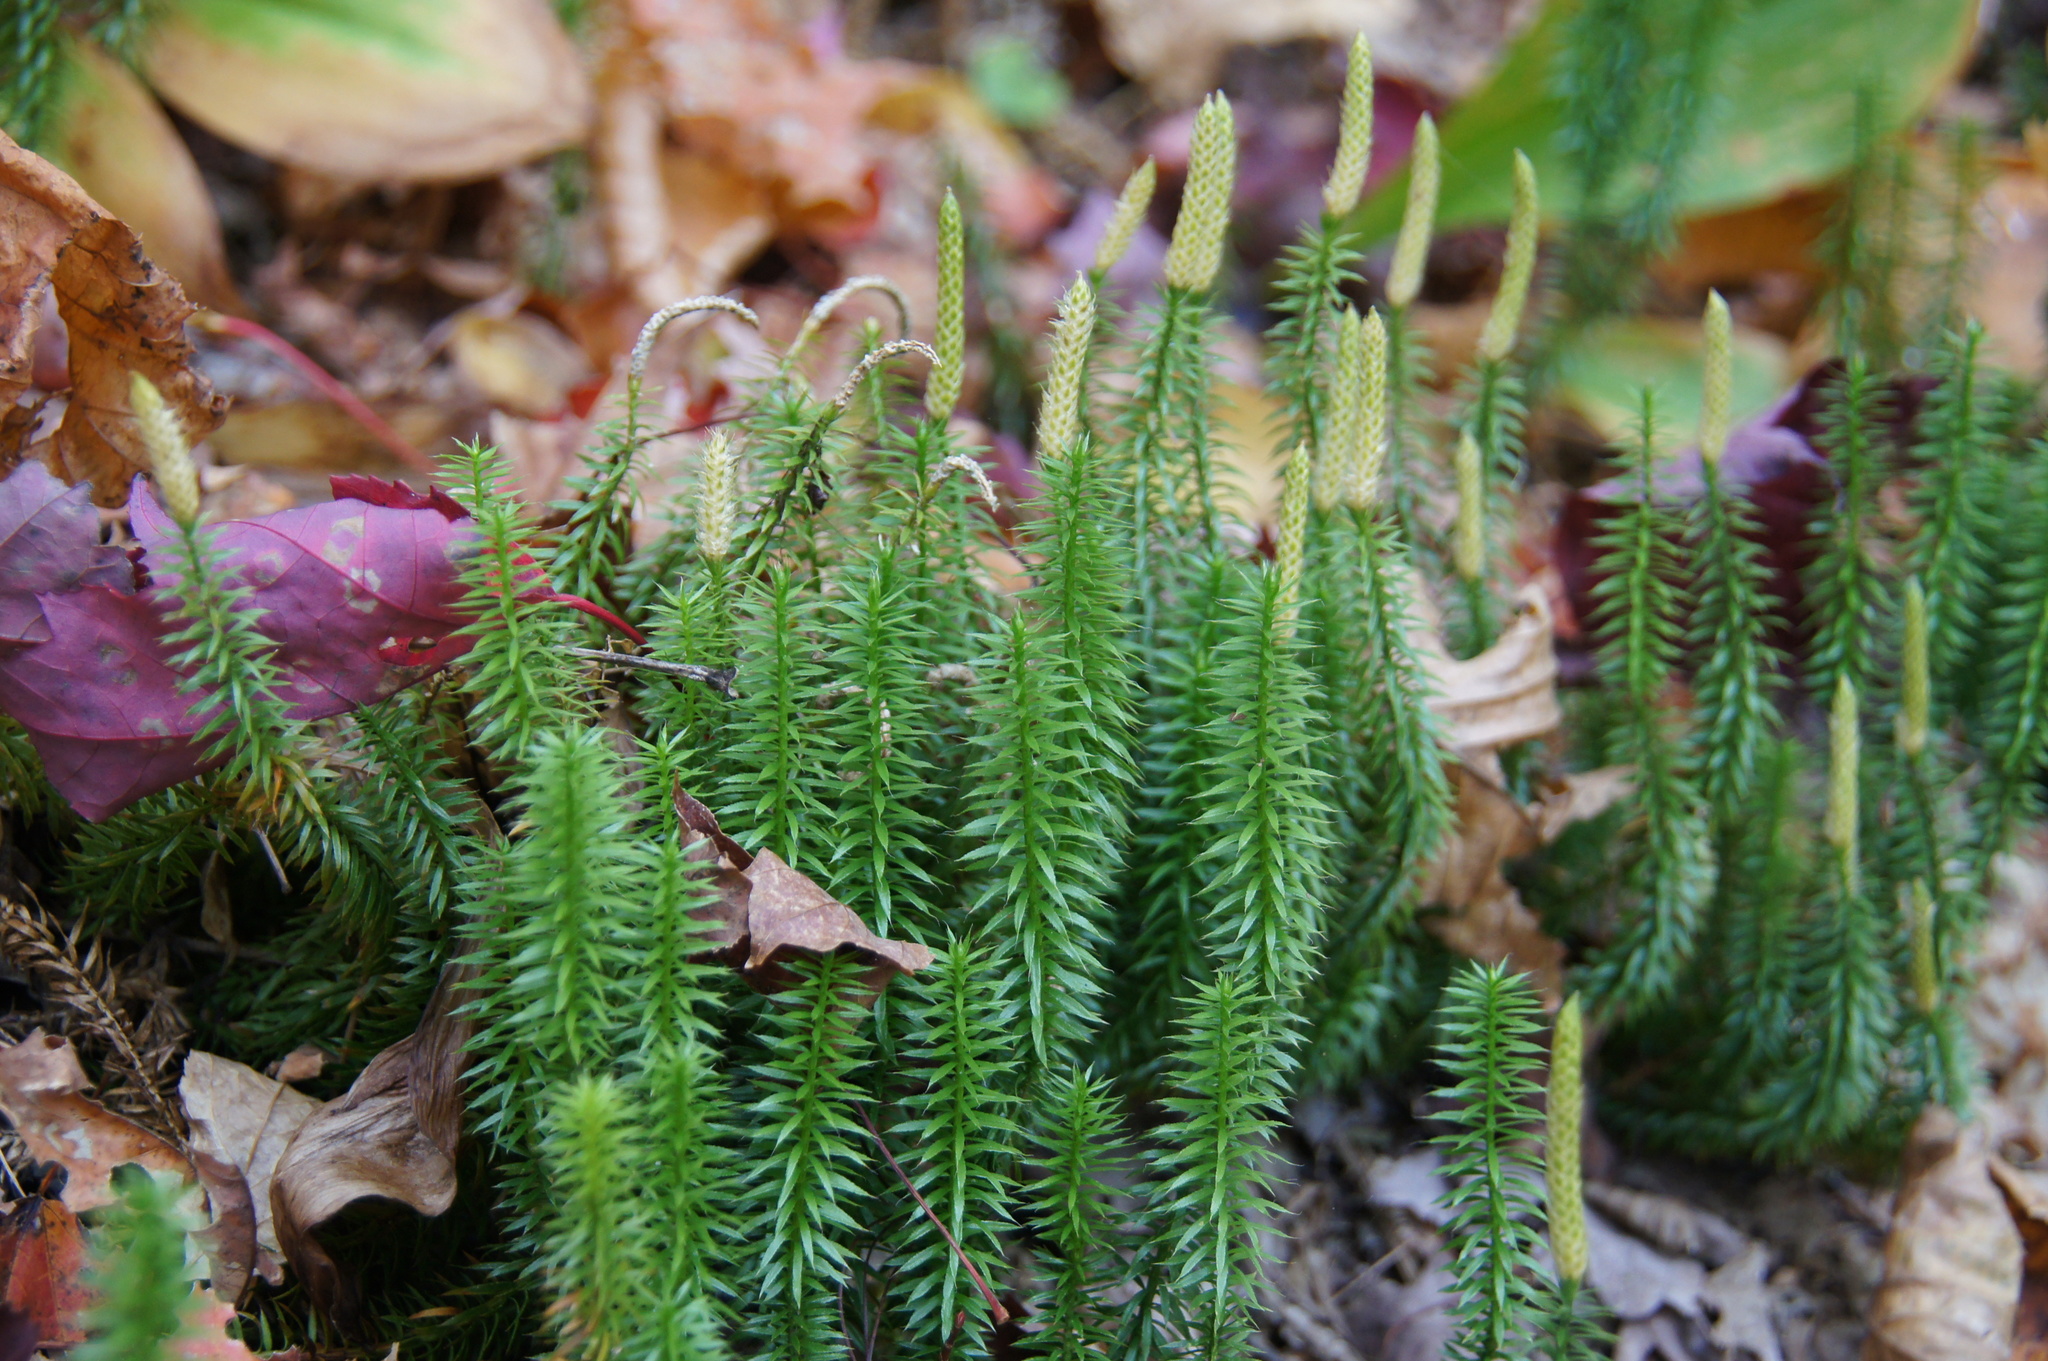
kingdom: Plantae
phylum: Tracheophyta
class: Lycopodiopsida
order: Lycopodiales
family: Lycopodiaceae
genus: Spinulum
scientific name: Spinulum annotinum
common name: Interrupted club-moss
